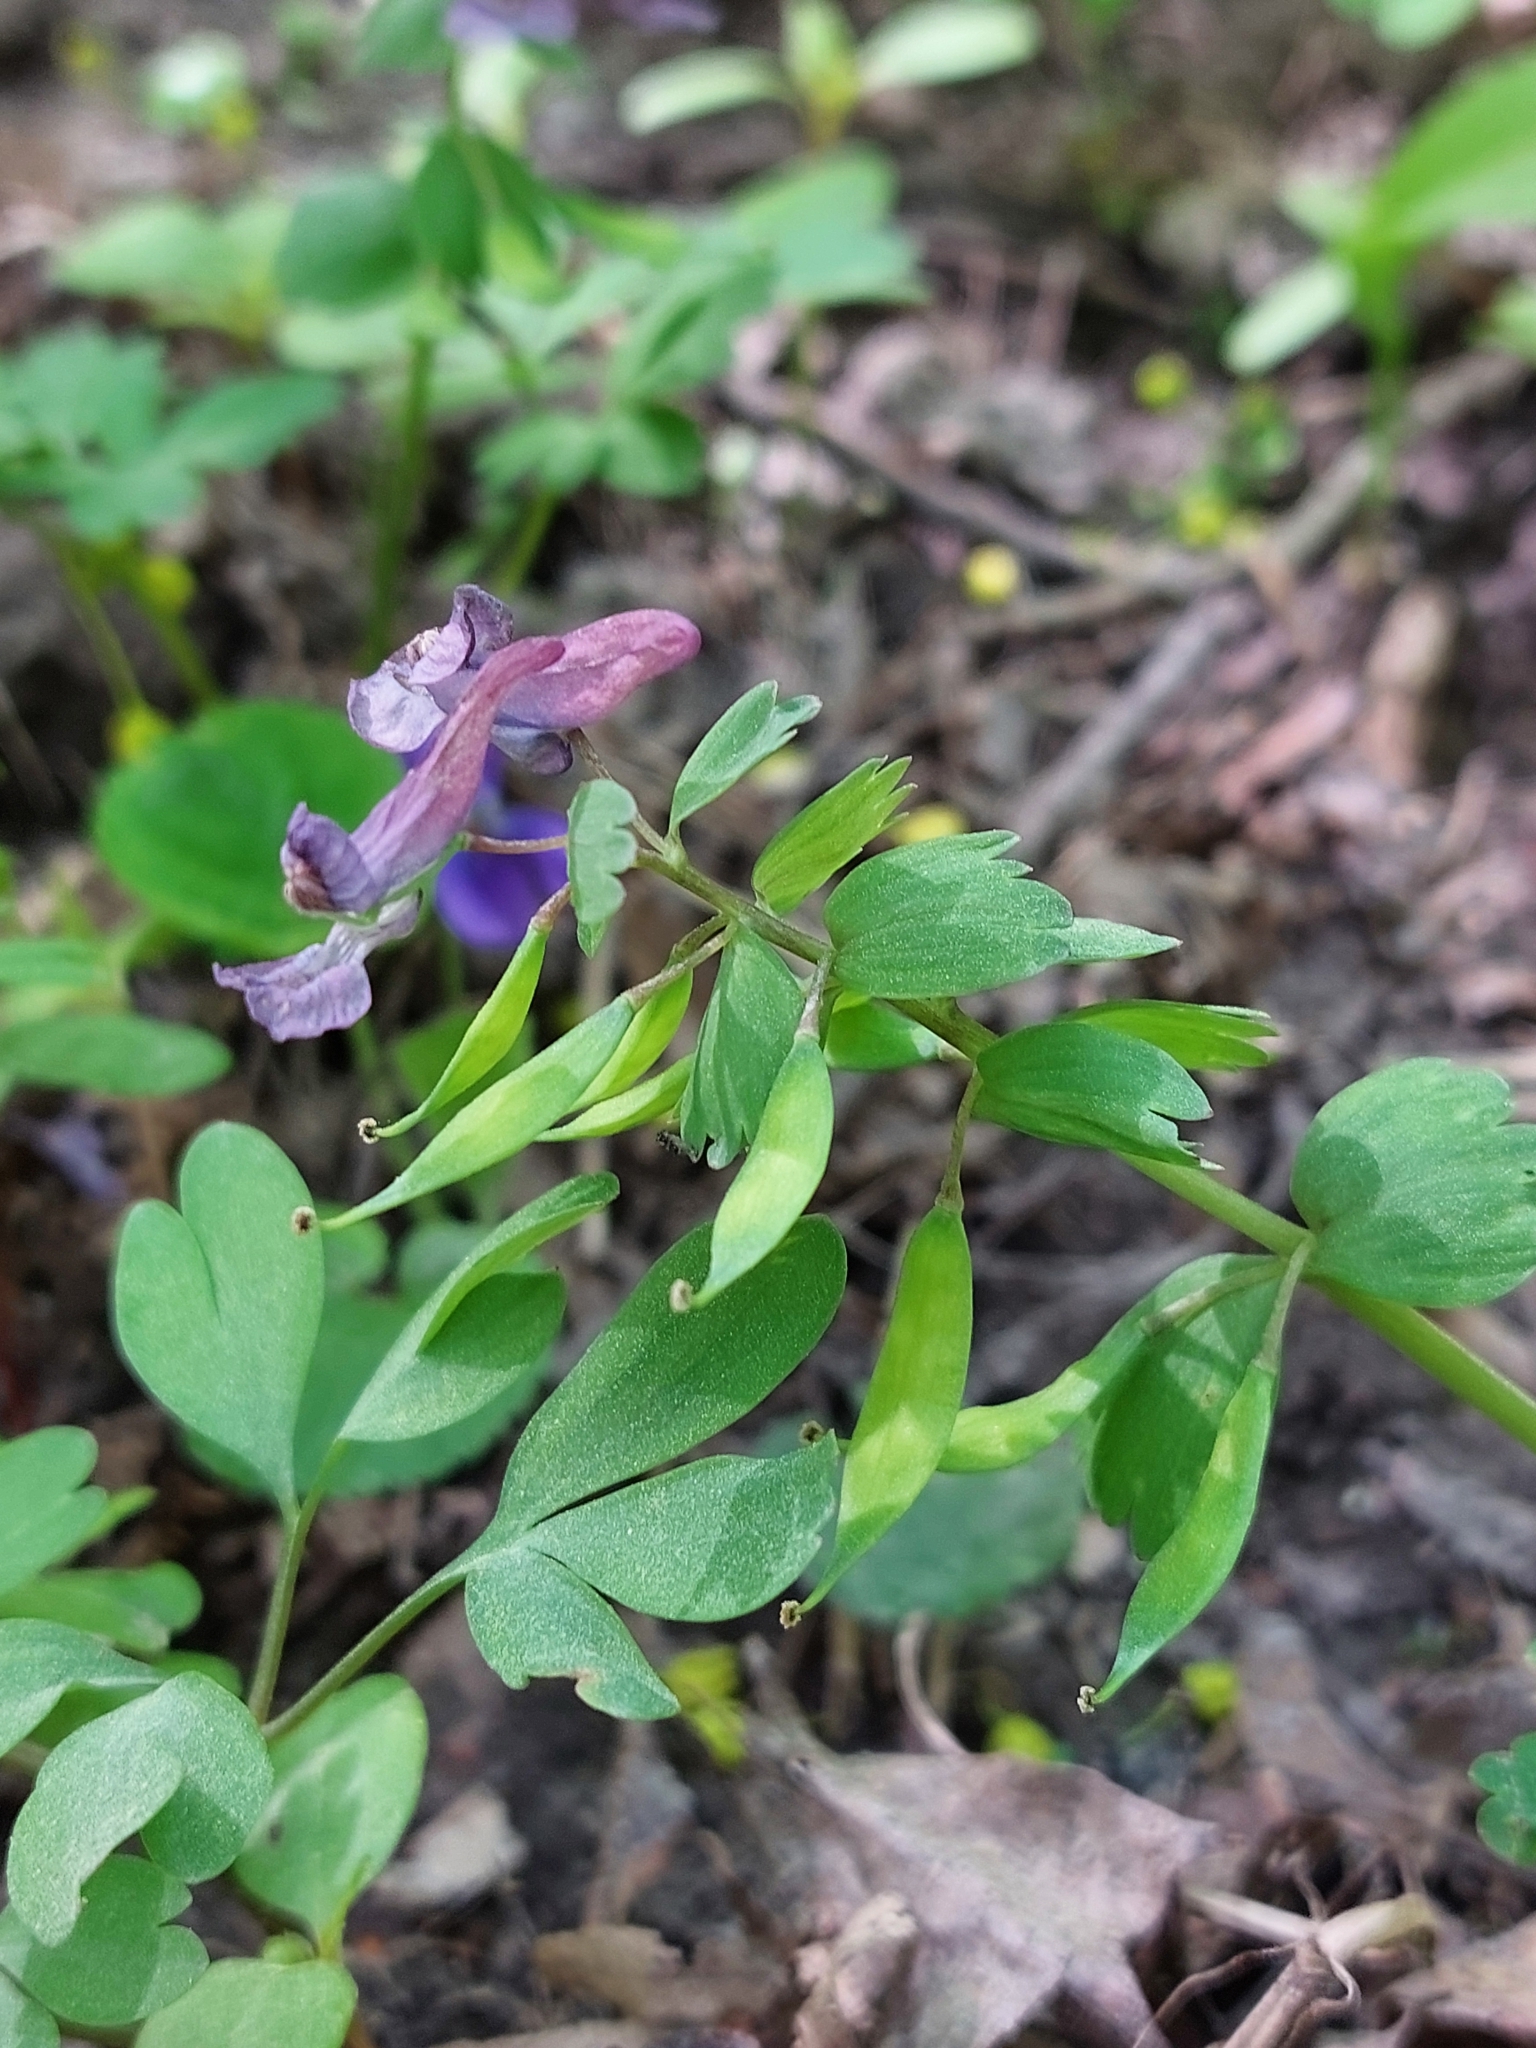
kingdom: Plantae
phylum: Tracheophyta
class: Magnoliopsida
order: Ranunculales
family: Papaveraceae
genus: Corydalis
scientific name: Corydalis solida
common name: Bird-in-a-bush
